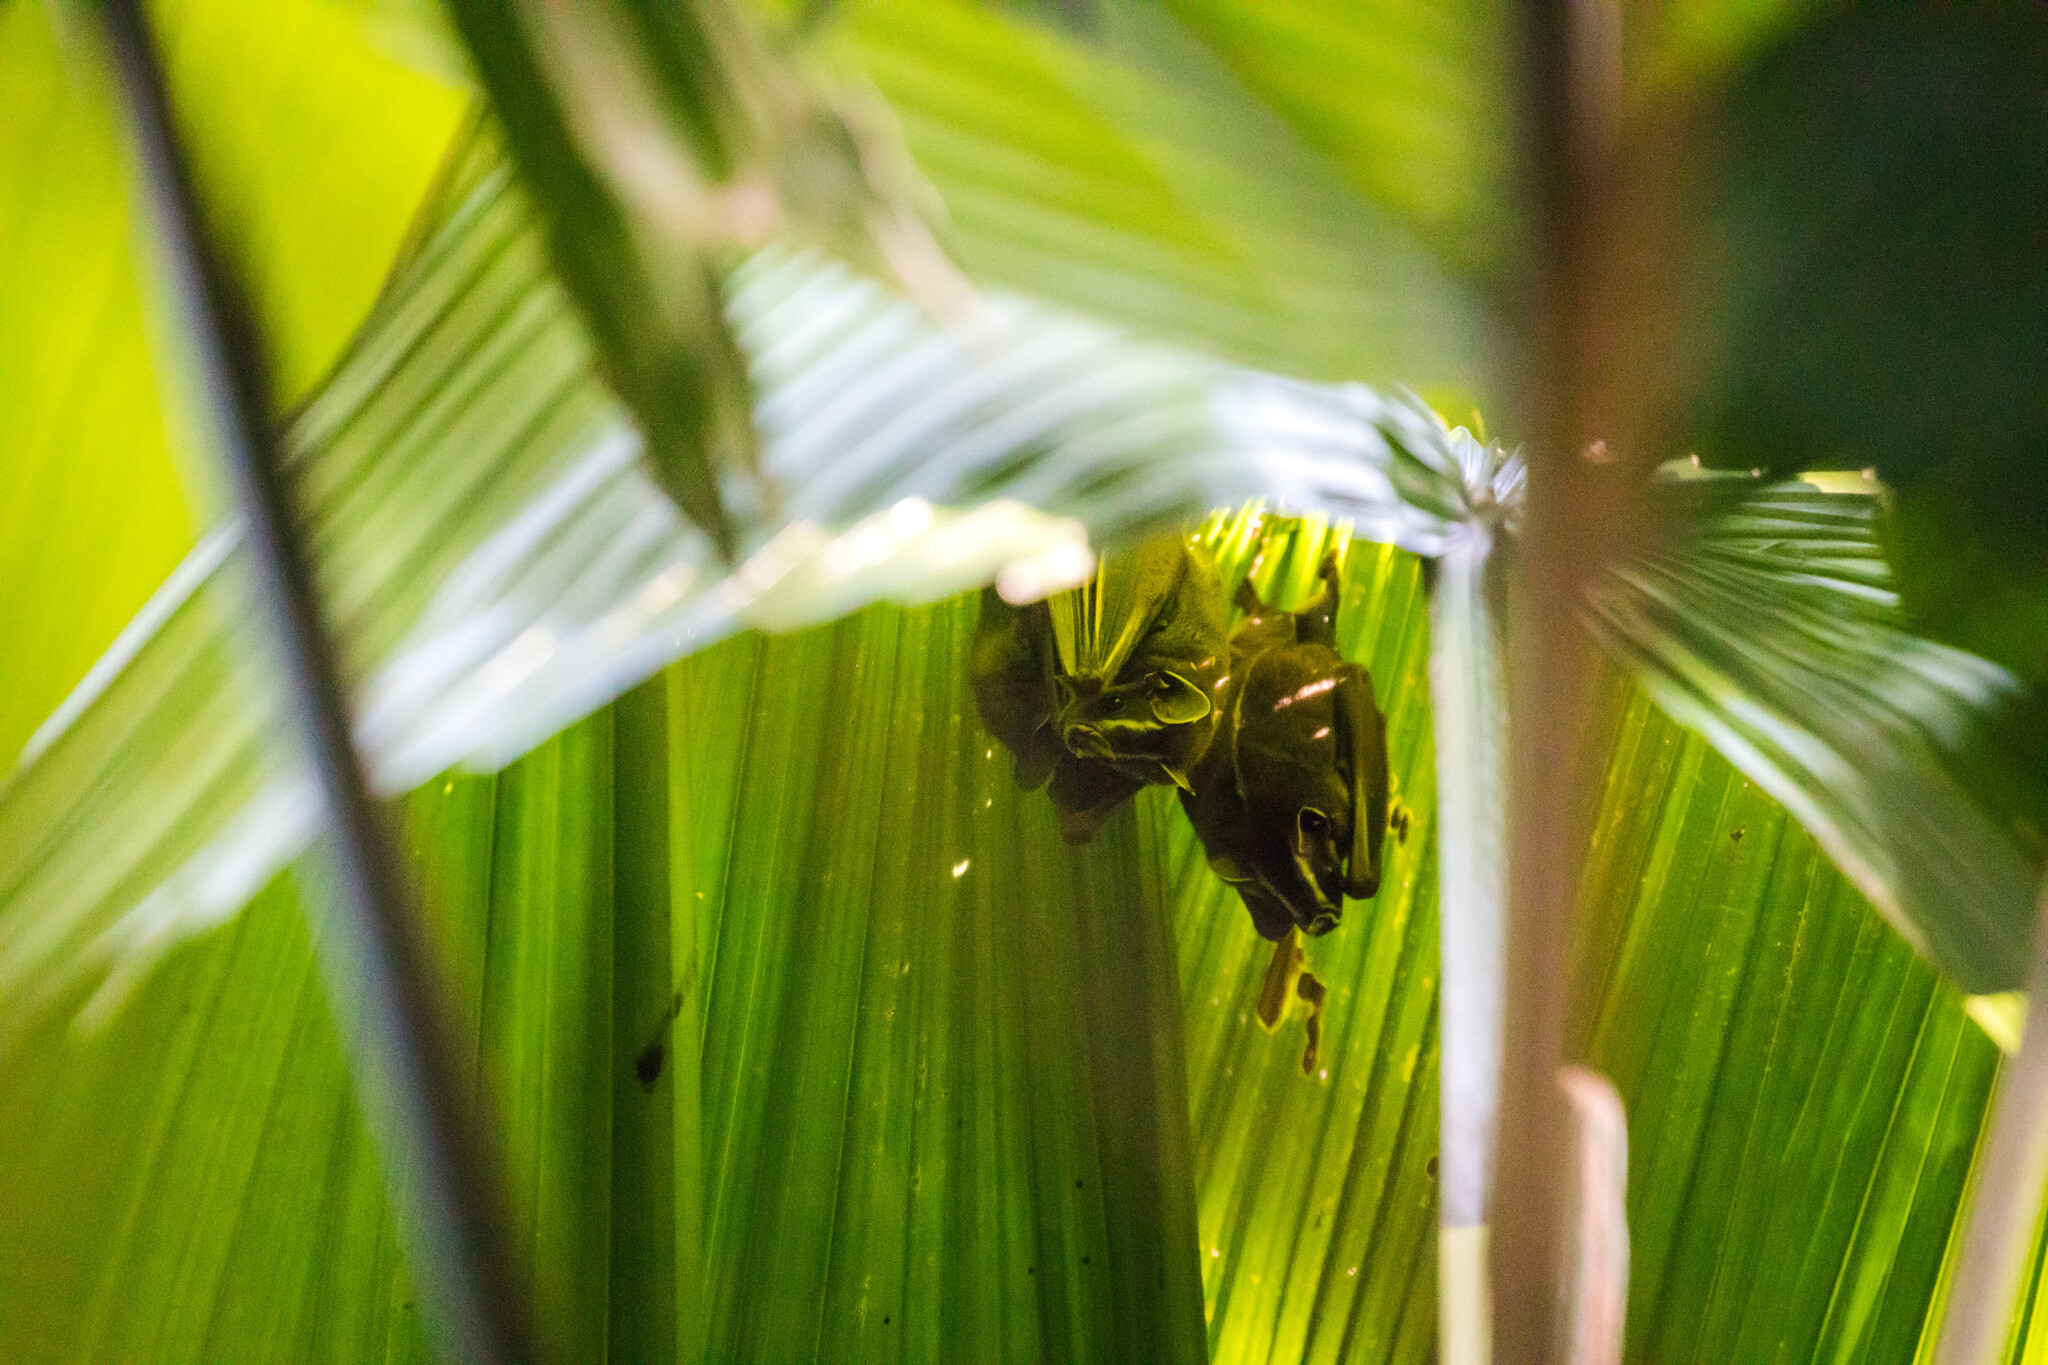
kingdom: Animalia
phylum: Chordata
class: Mammalia
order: Chiroptera
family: Phyllostomidae
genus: Uroderma
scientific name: Uroderma bilobatum
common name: Common tent-making bat
